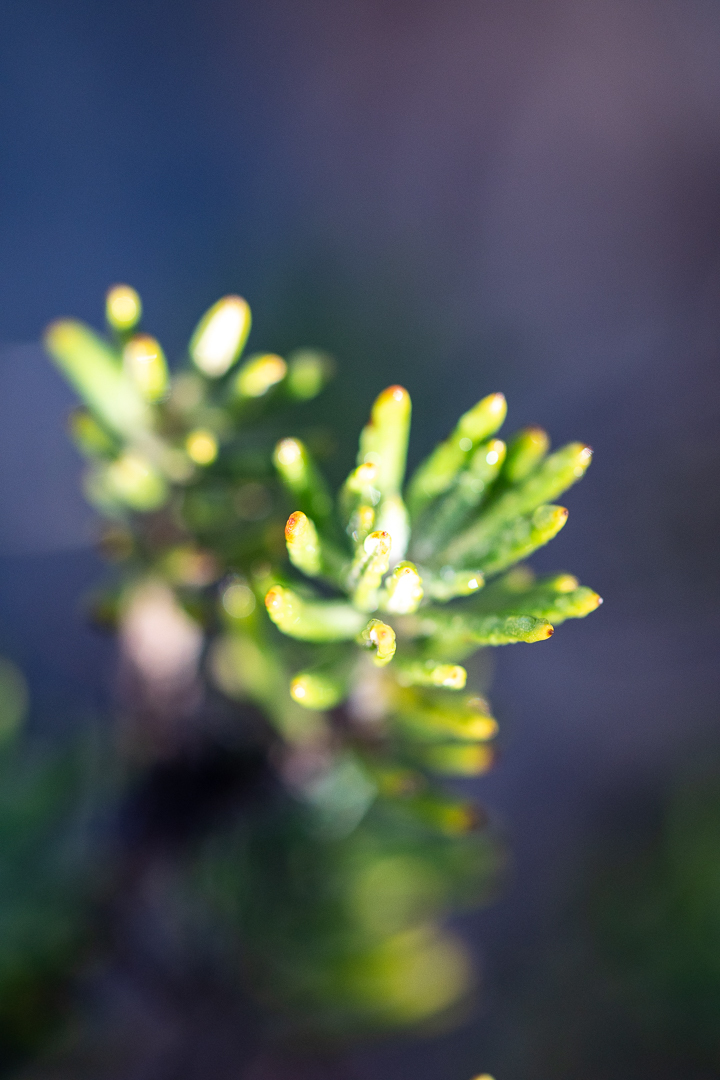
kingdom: Plantae
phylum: Tracheophyta
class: Magnoliopsida
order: Asterales
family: Asteraceae
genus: Heterolepis
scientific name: Heterolepis aliena
